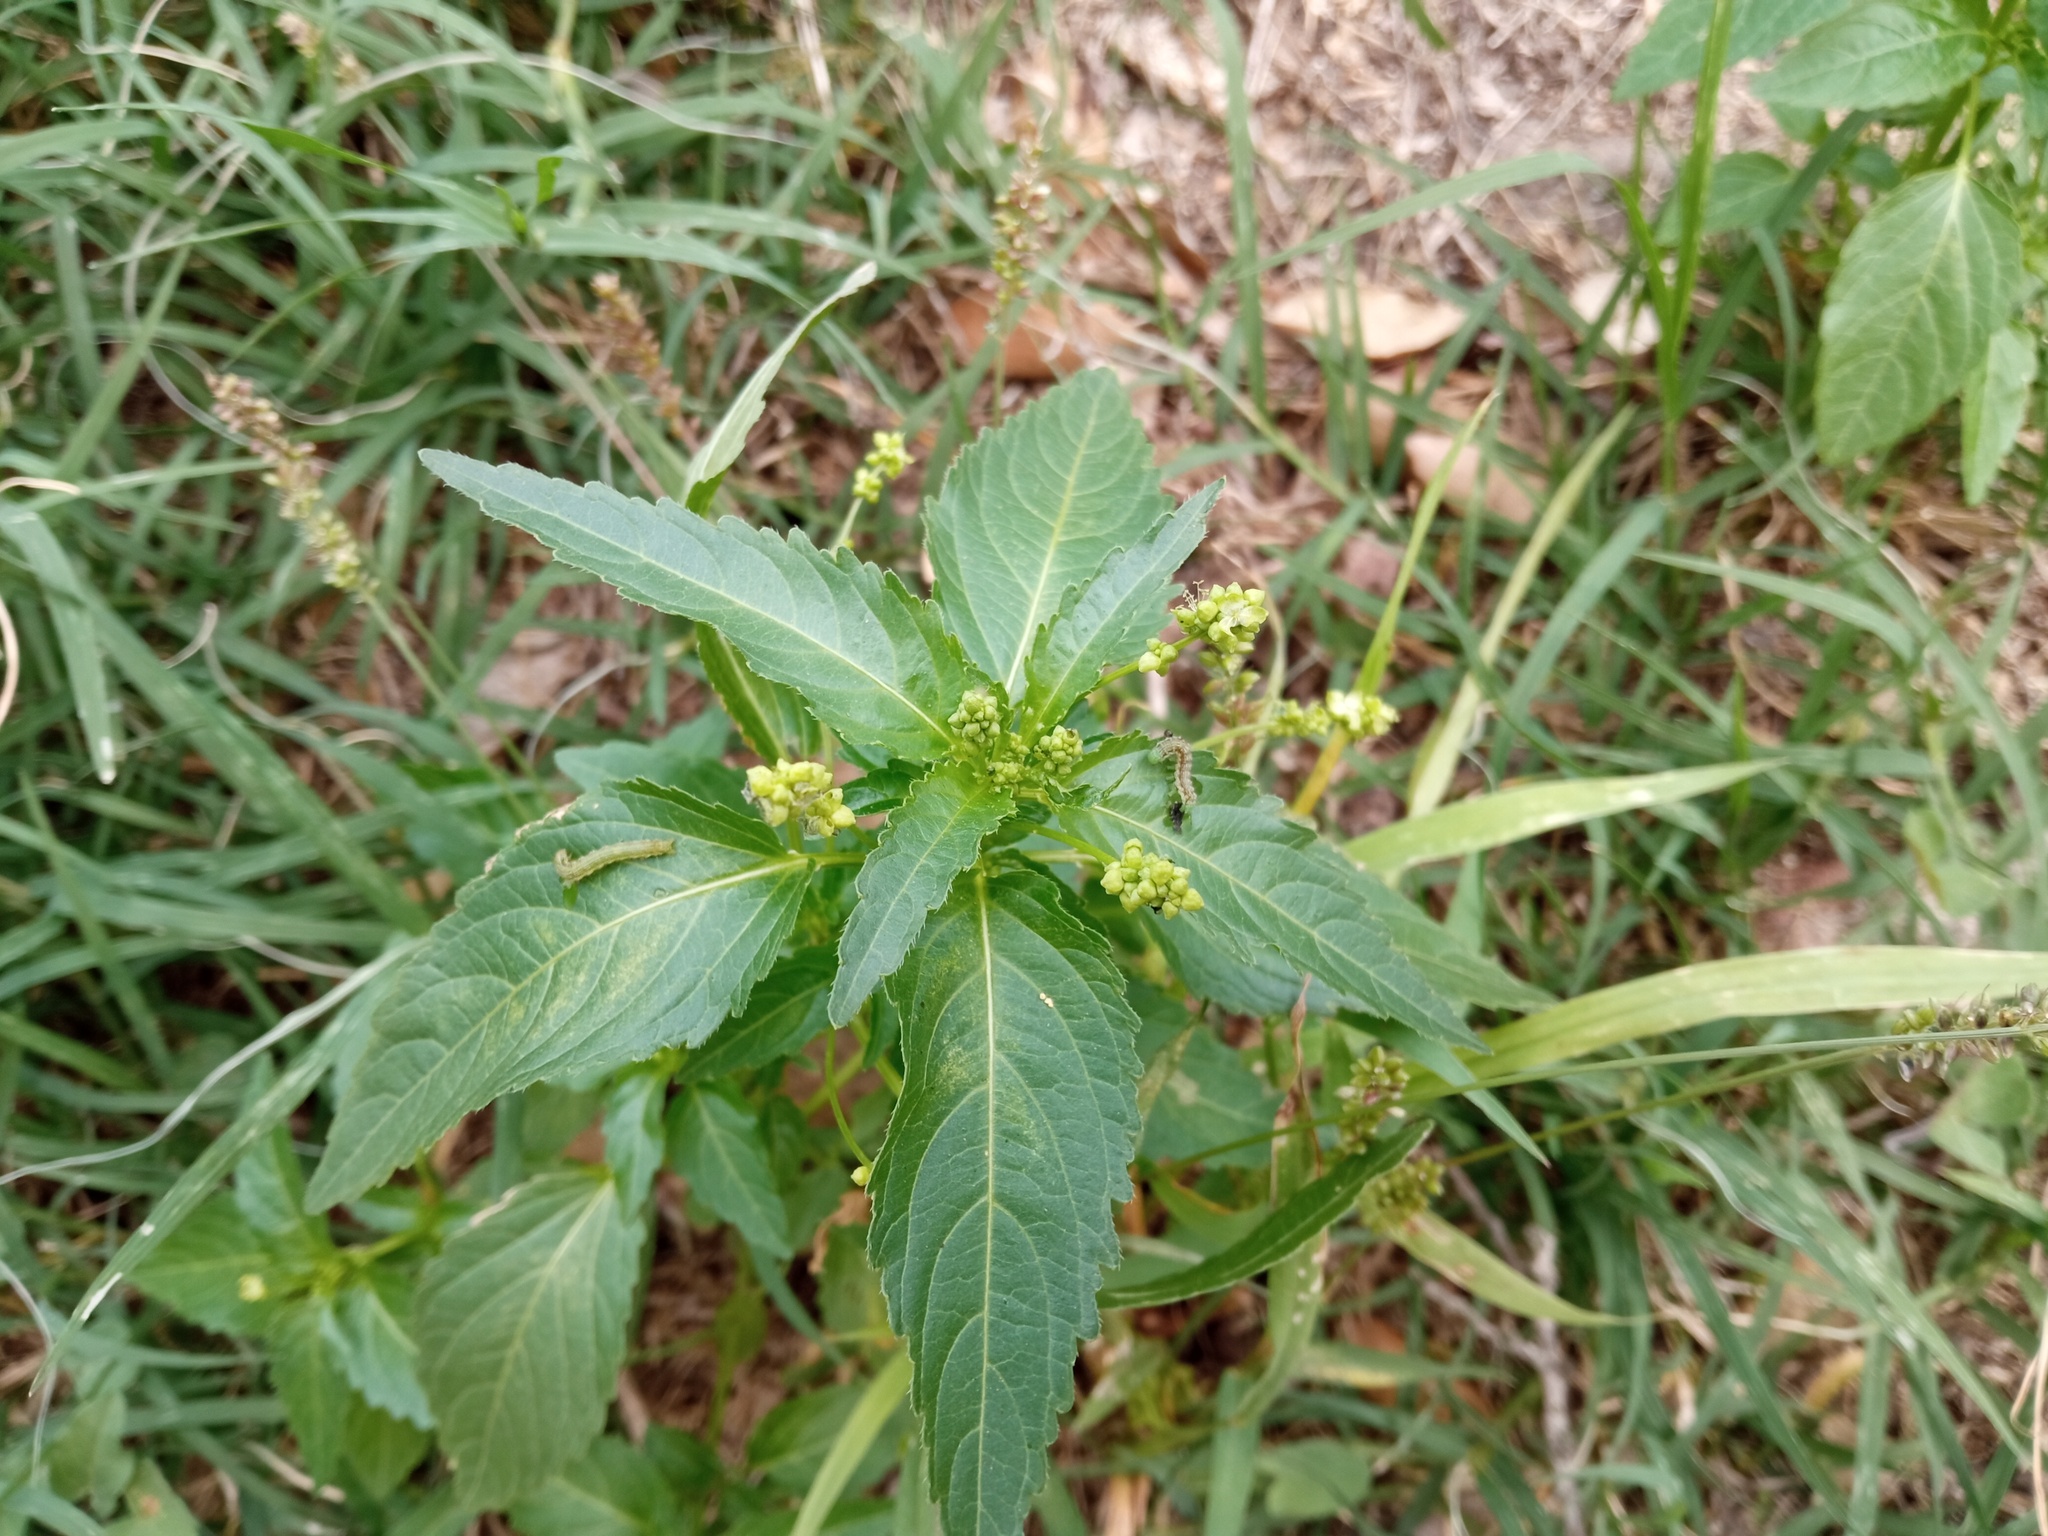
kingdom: Plantae
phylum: Tracheophyta
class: Magnoliopsida
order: Malpighiales
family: Euphorbiaceae
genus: Mercurialis
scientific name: Mercurialis annua
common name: Annual mercury
